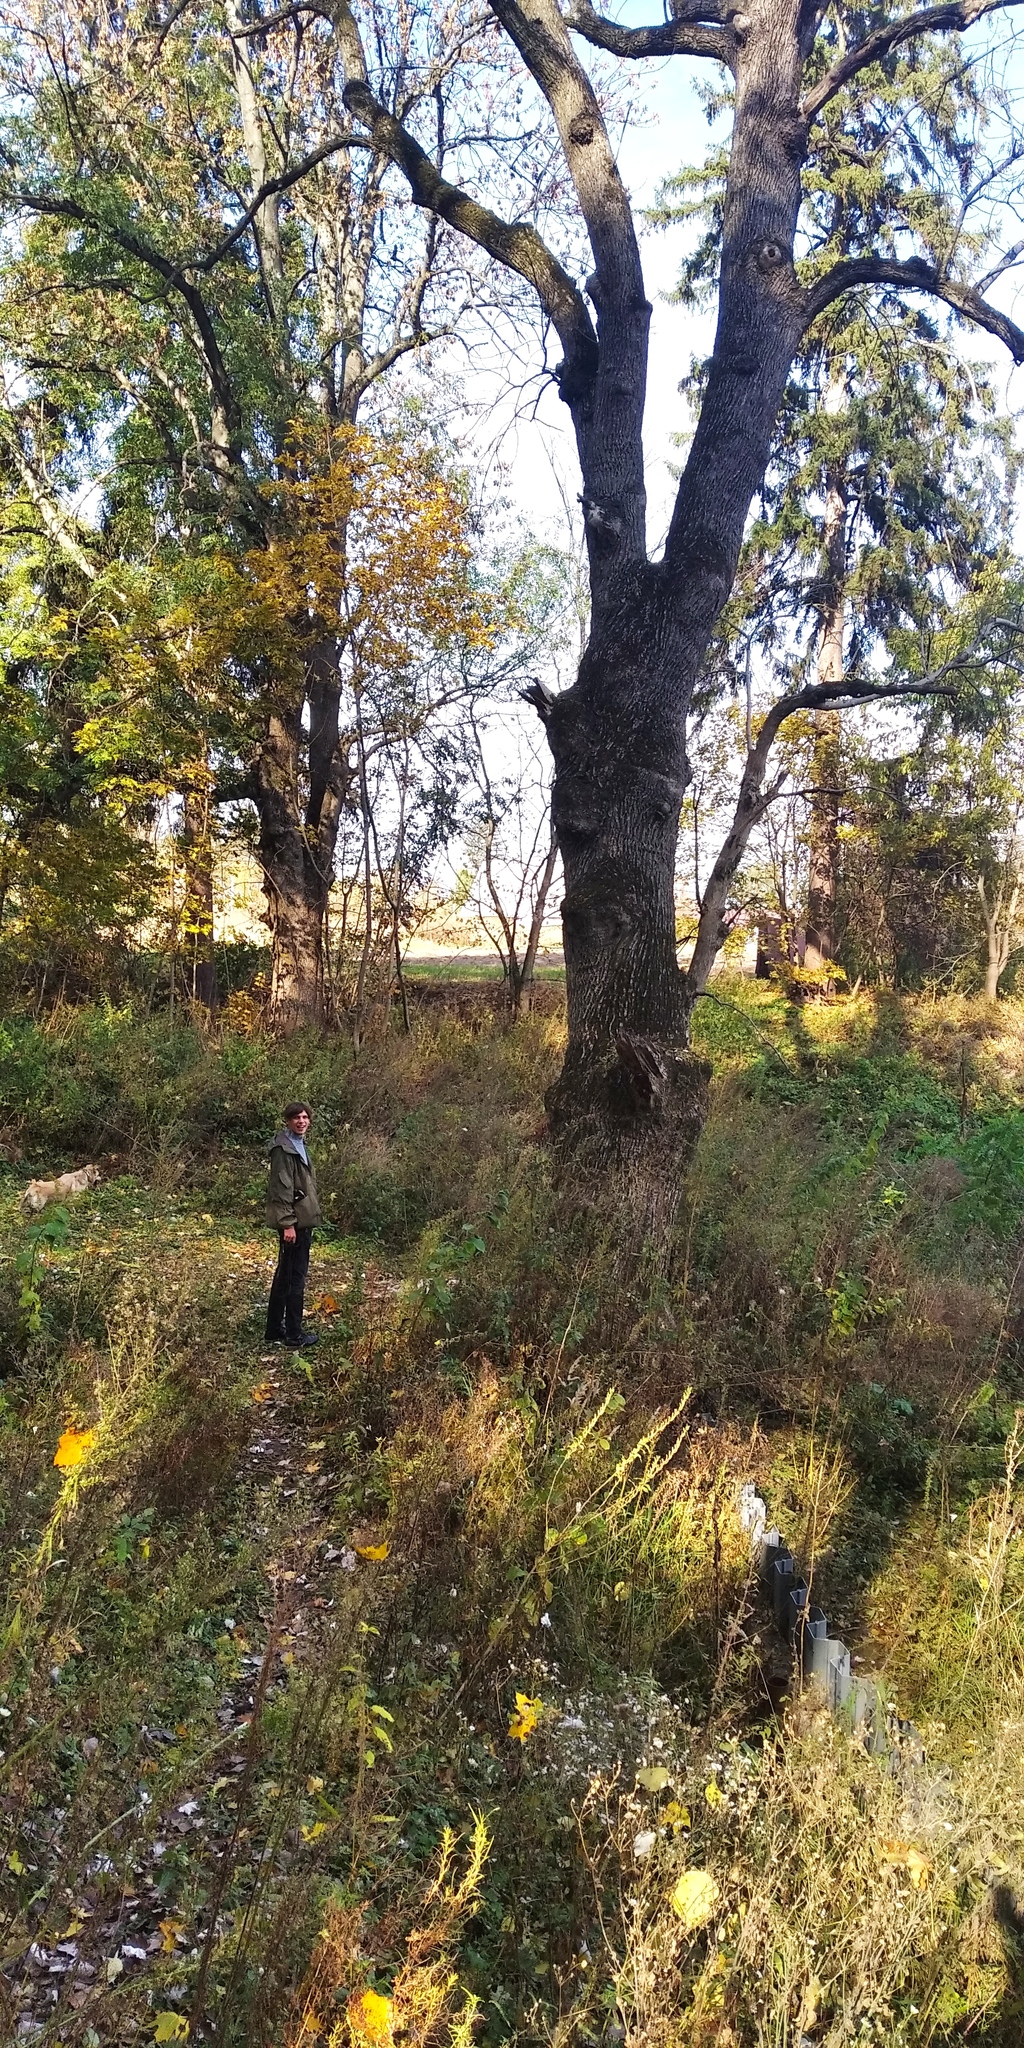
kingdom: Plantae
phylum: Tracheophyta
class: Magnoliopsida
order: Fagales
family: Fagaceae
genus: Quercus
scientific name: Quercus robur
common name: Pedunculate oak
